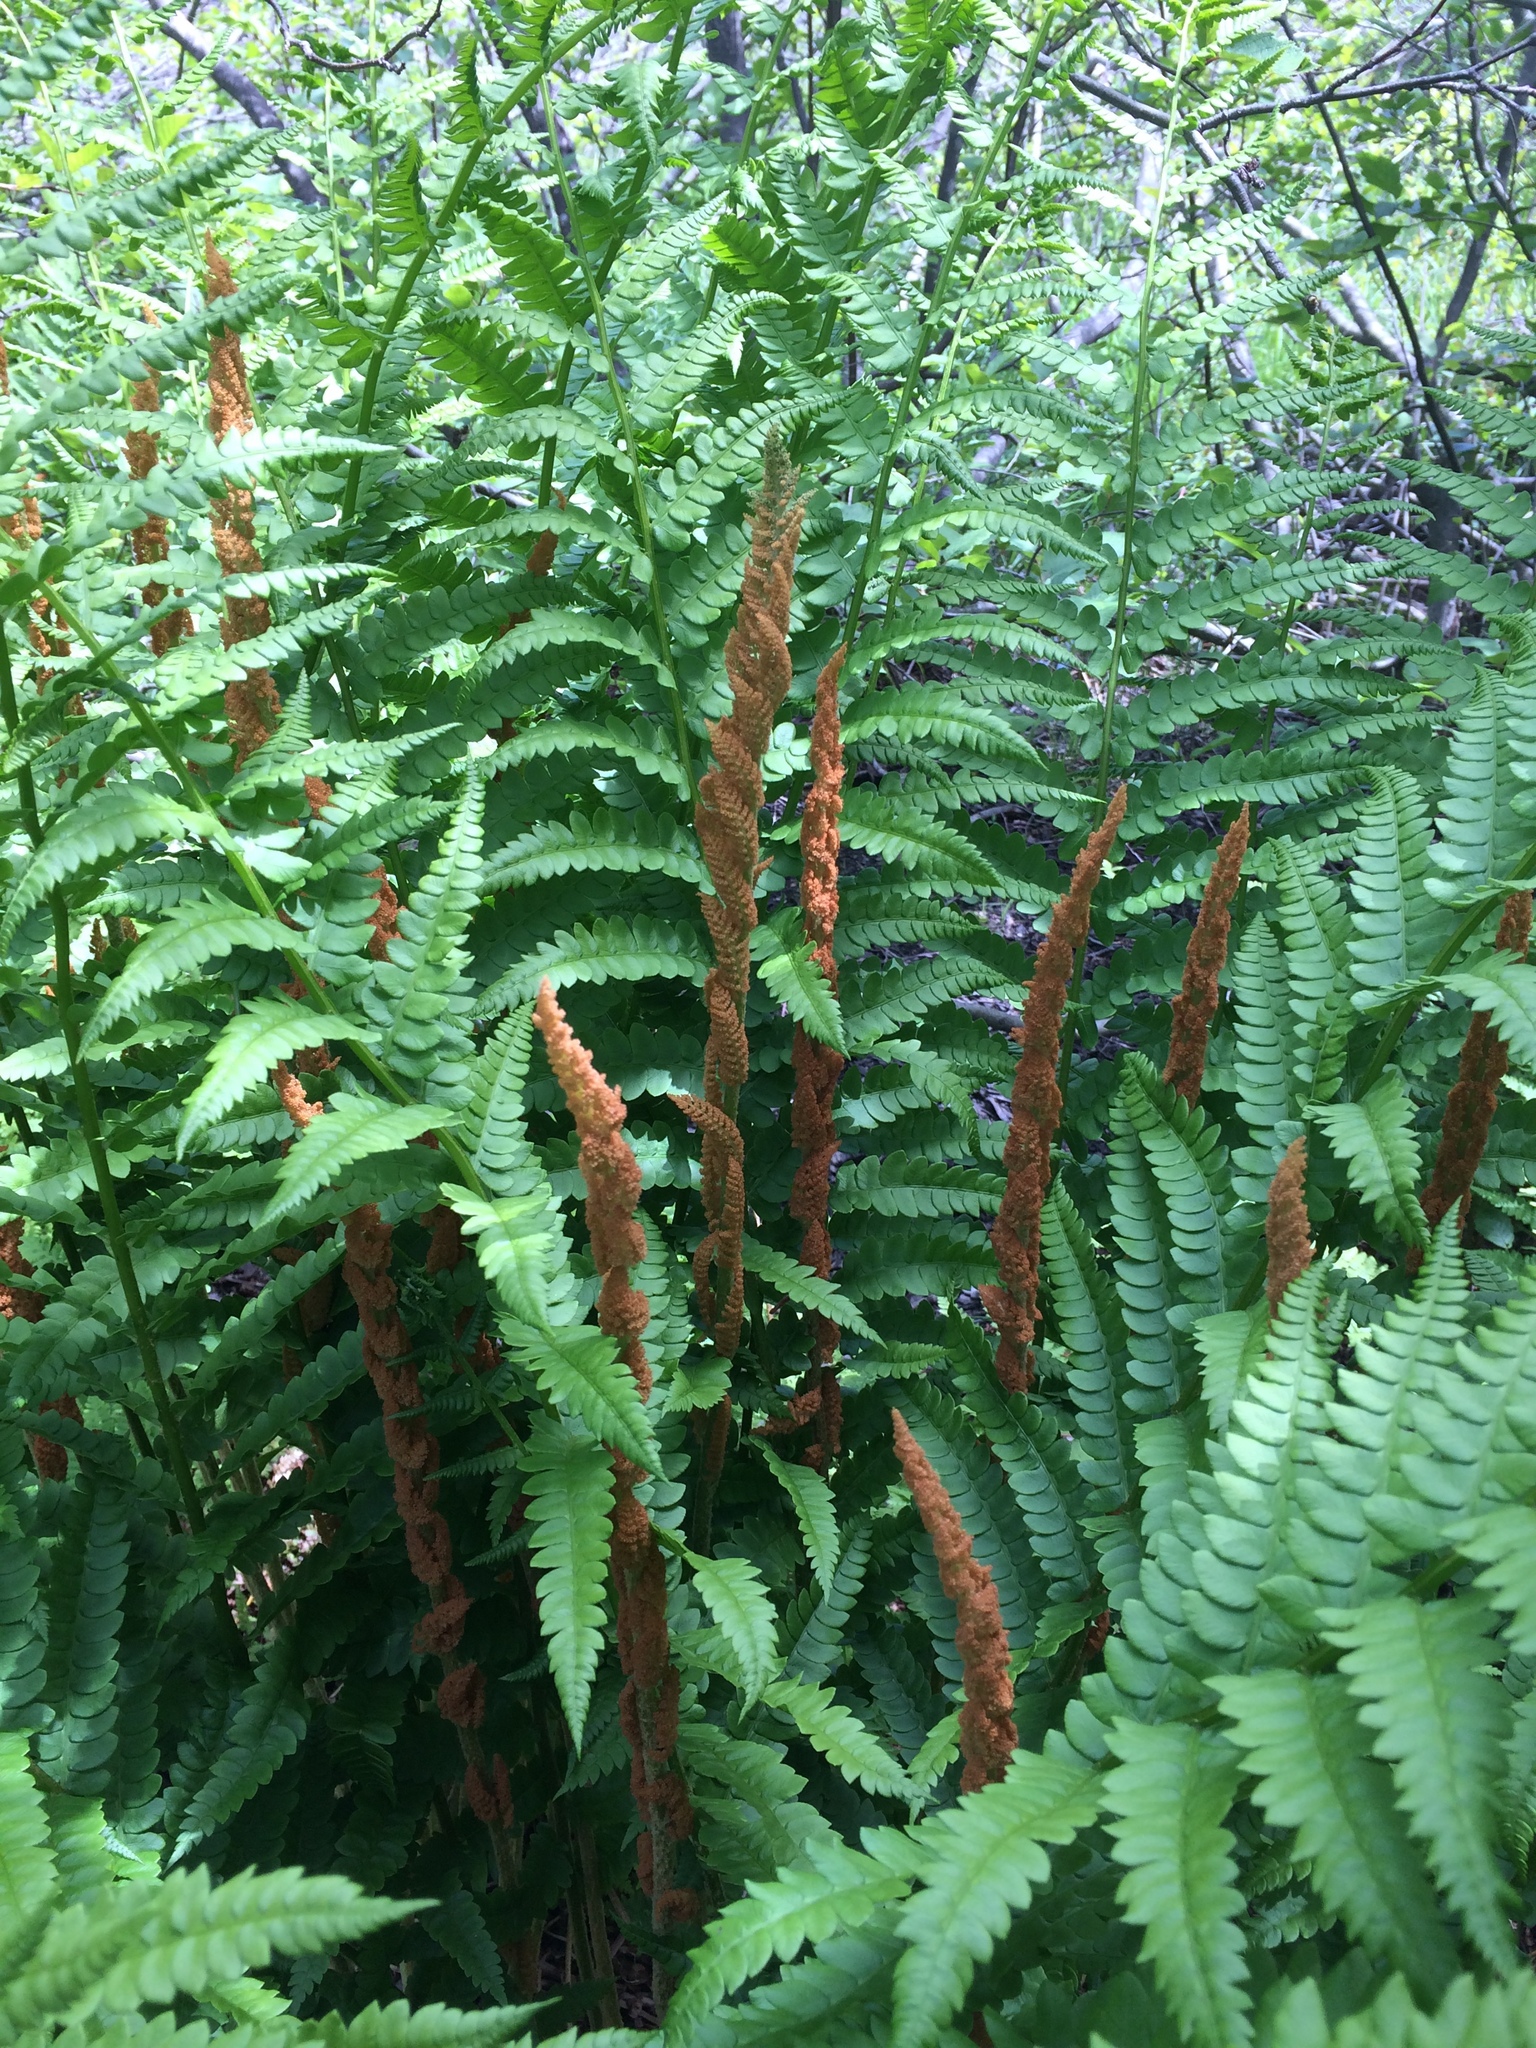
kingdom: Plantae
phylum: Tracheophyta
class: Polypodiopsida
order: Osmundales
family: Osmundaceae
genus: Osmundastrum
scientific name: Osmundastrum cinnamomeum
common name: Cinnamon fern
